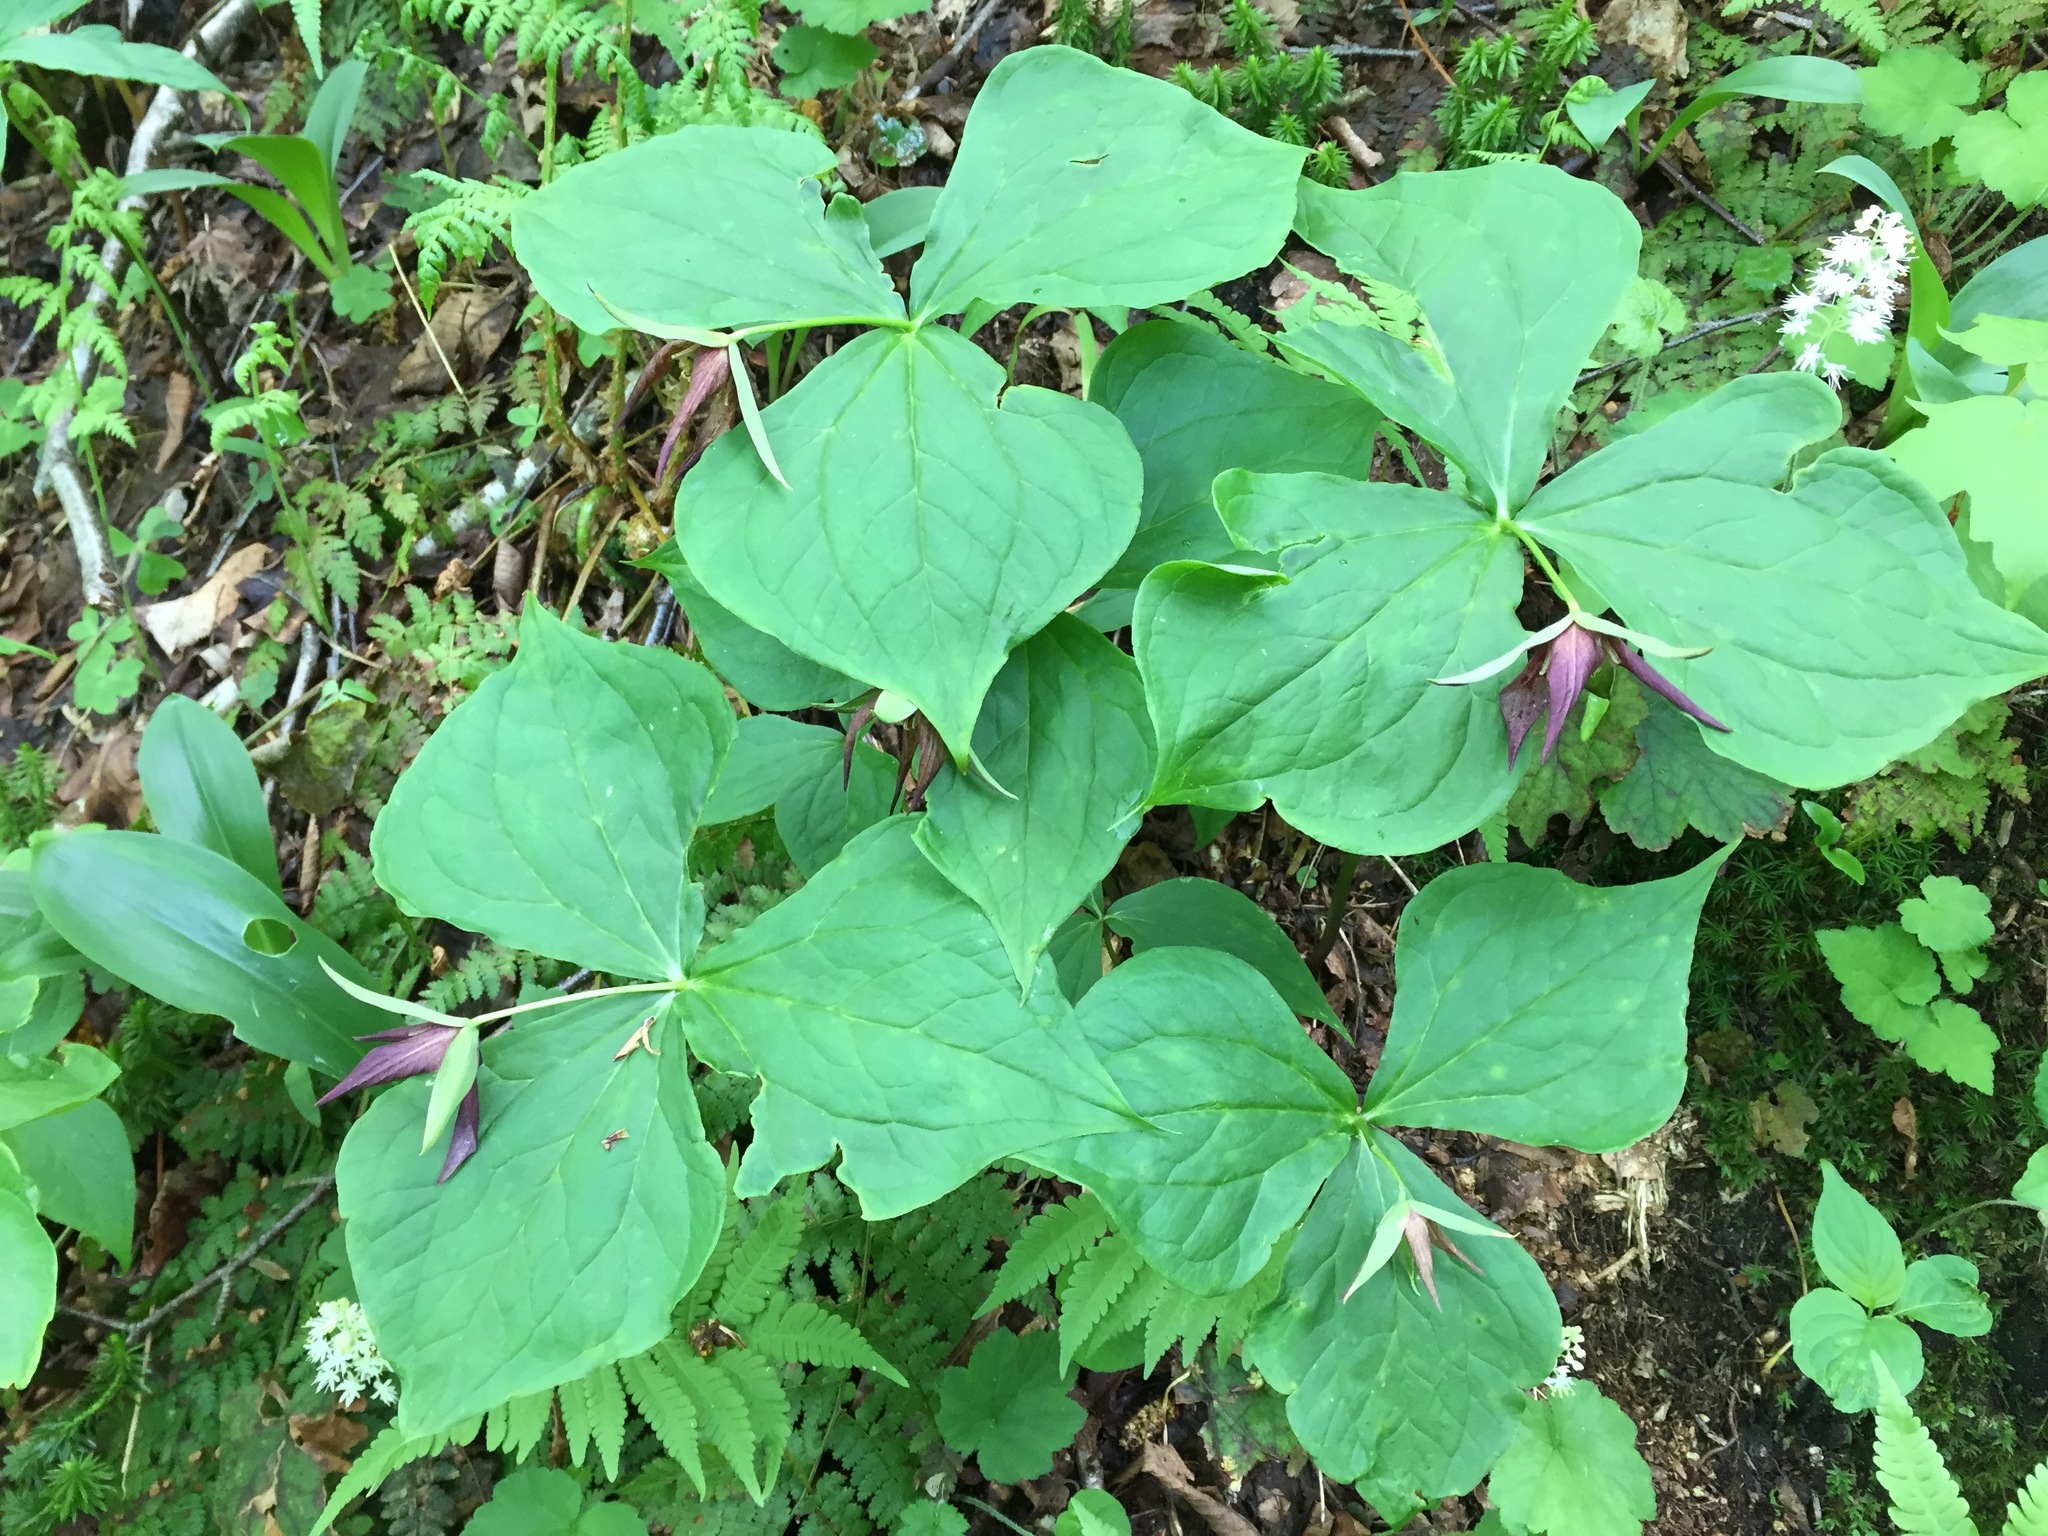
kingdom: Plantae
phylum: Tracheophyta
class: Liliopsida
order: Liliales
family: Melanthiaceae
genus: Trillium
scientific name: Trillium erectum
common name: Purple trillium
